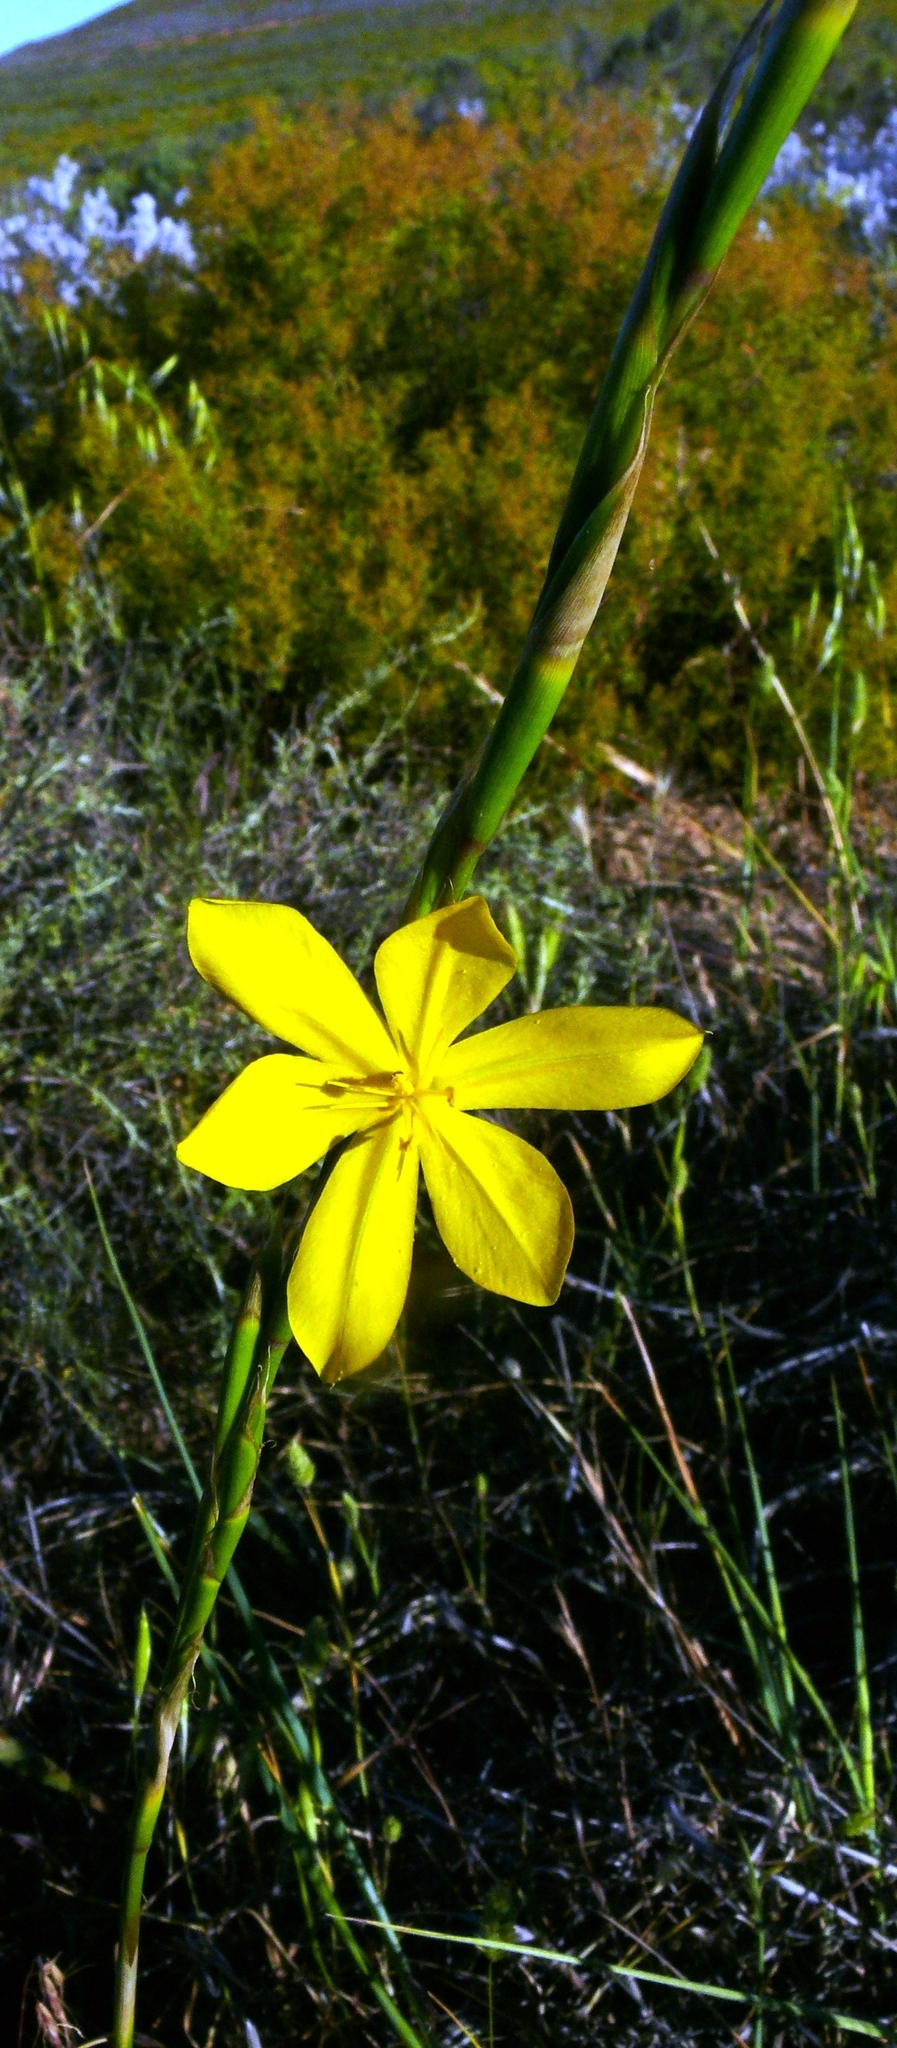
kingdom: Plantae
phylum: Tracheophyta
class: Liliopsida
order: Asparagales
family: Iridaceae
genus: Moraea
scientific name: Moraea lewisiae
